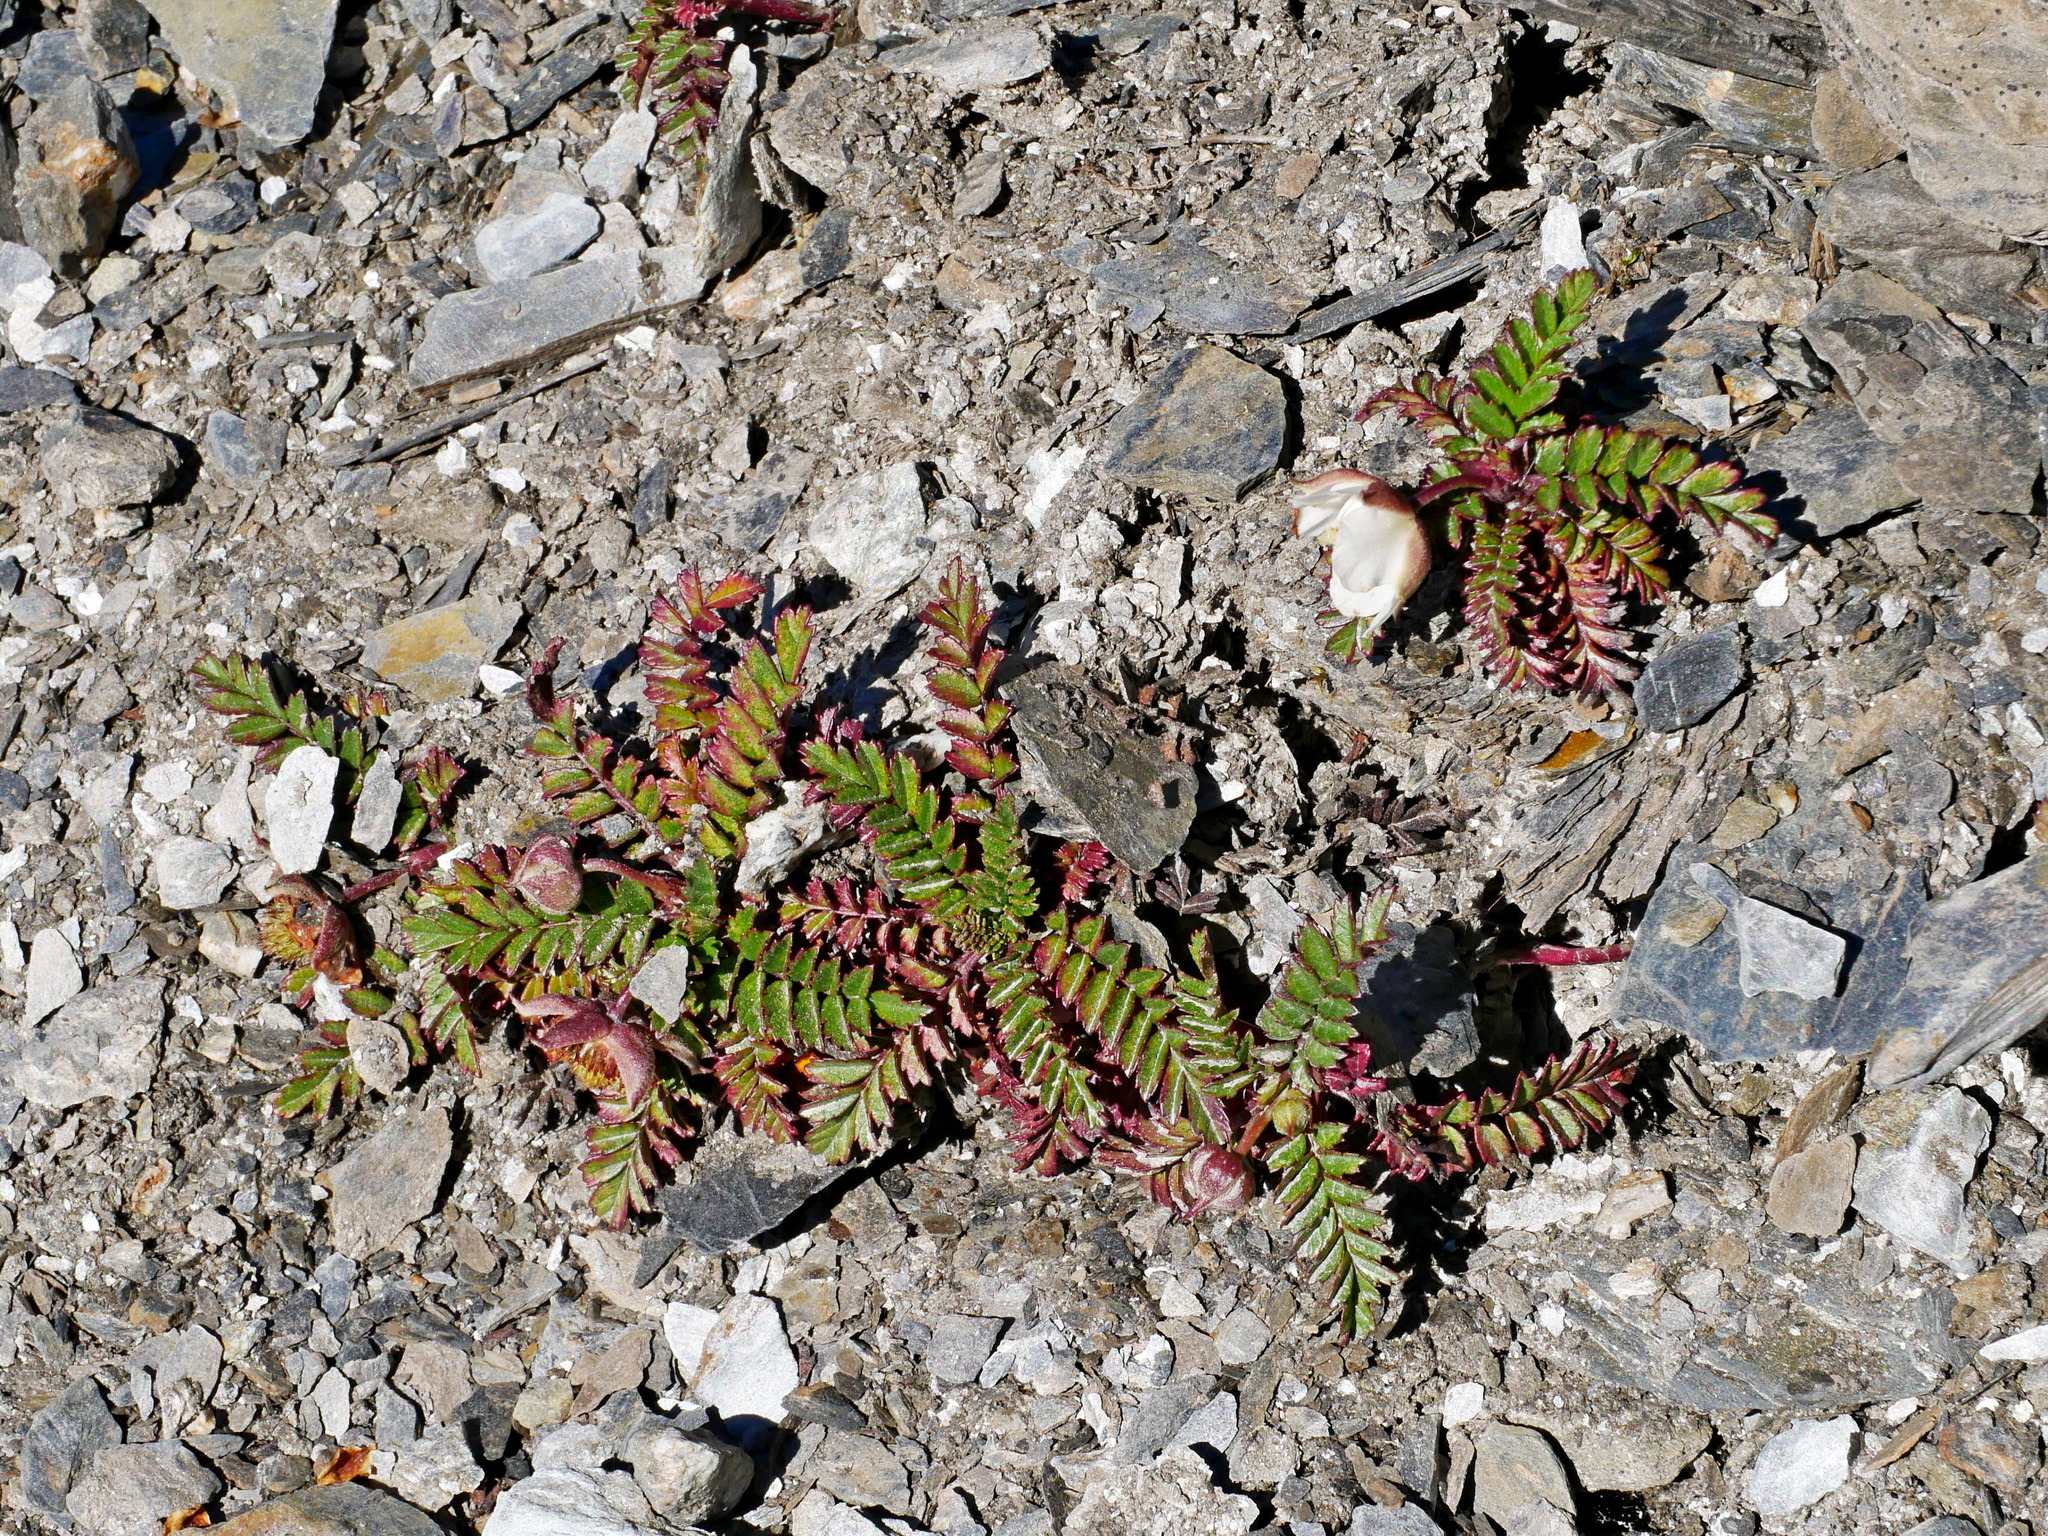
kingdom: Plantae
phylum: Tracheophyta
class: Magnoliopsida
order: Rosales
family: Rosaceae
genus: Rubus
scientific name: Rubus taiwanicola
